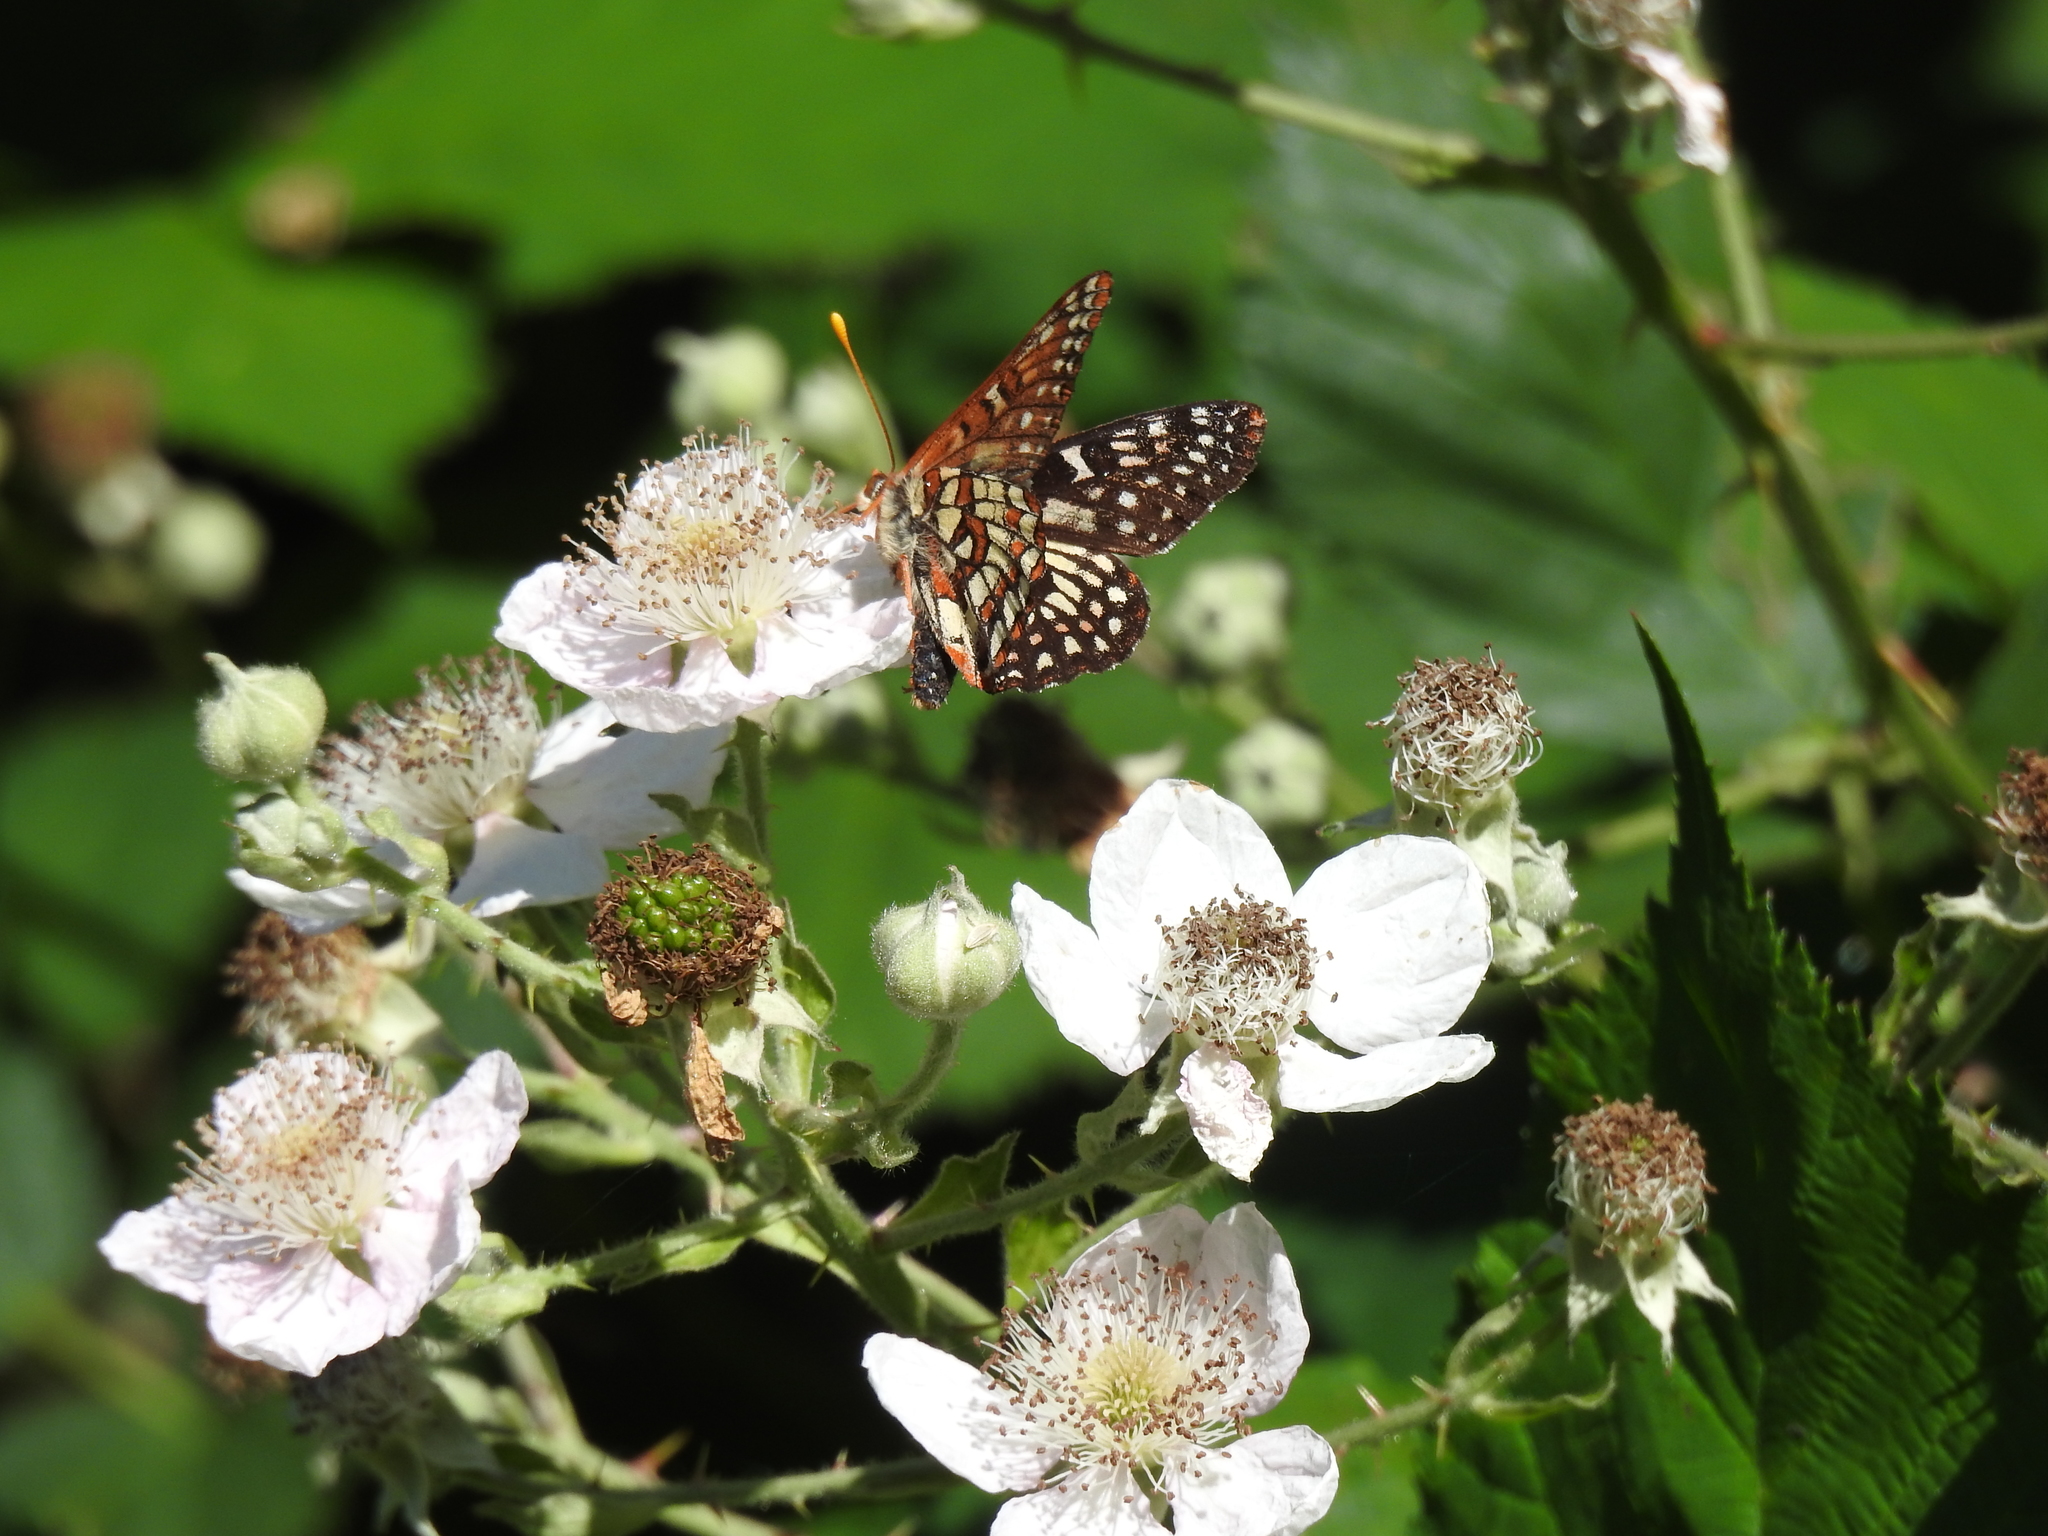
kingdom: Animalia
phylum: Arthropoda
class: Insecta
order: Lepidoptera
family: Nymphalidae
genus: Occidryas
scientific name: Occidryas chalcedona
